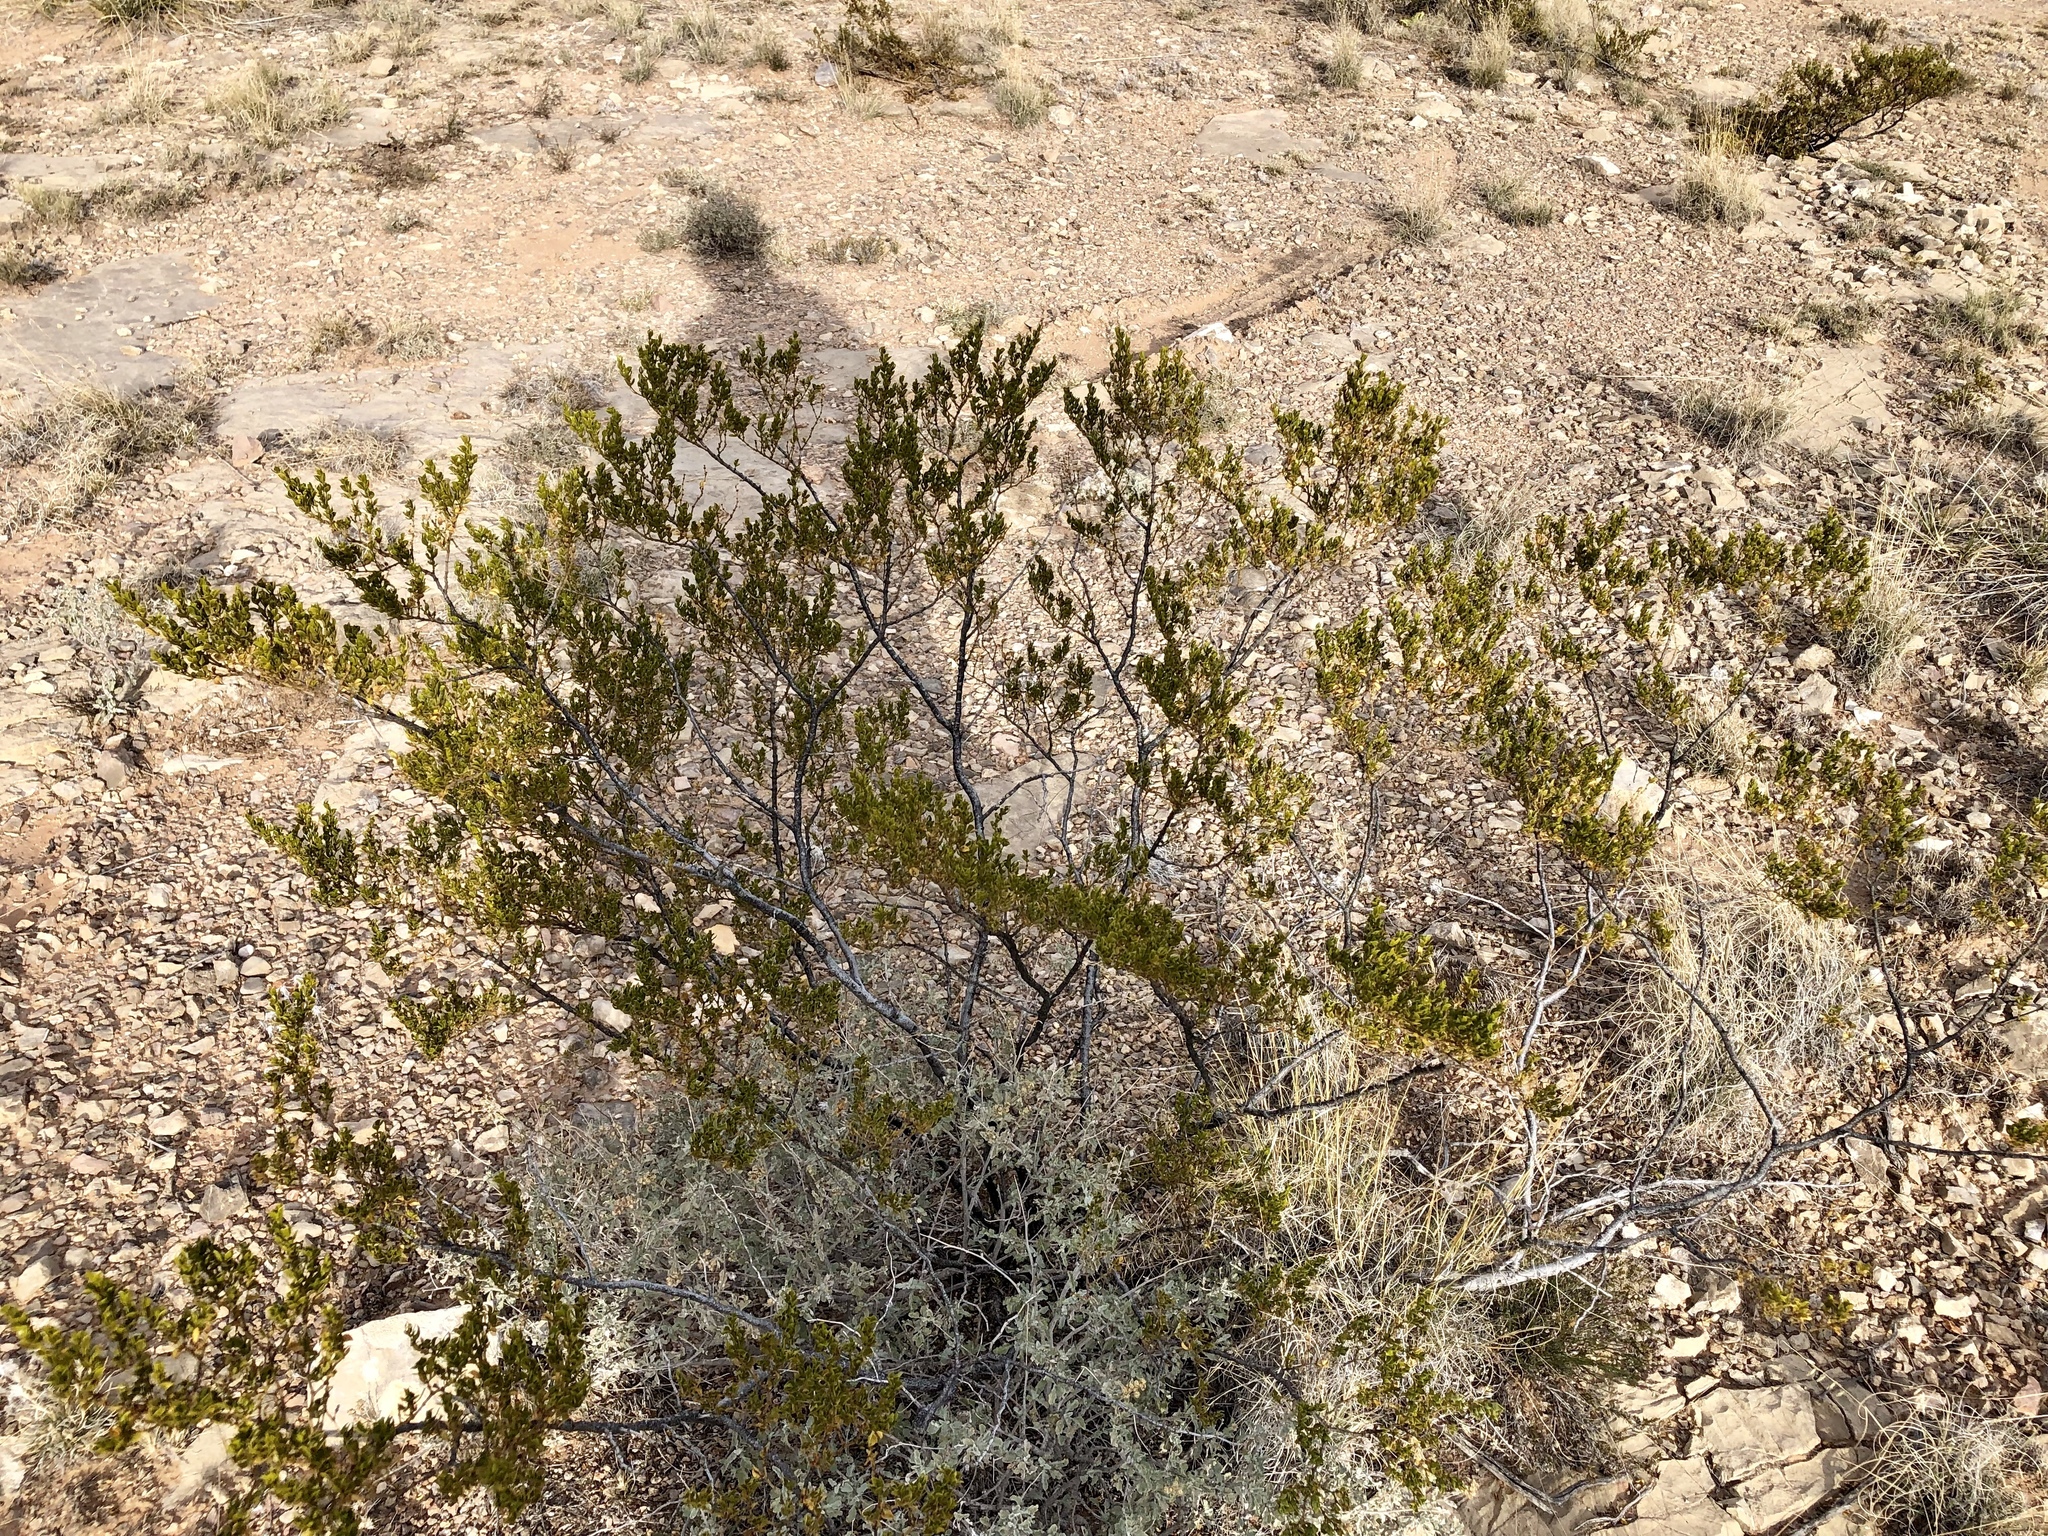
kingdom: Plantae
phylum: Tracheophyta
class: Magnoliopsida
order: Zygophyllales
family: Zygophyllaceae
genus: Larrea
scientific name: Larrea tridentata
